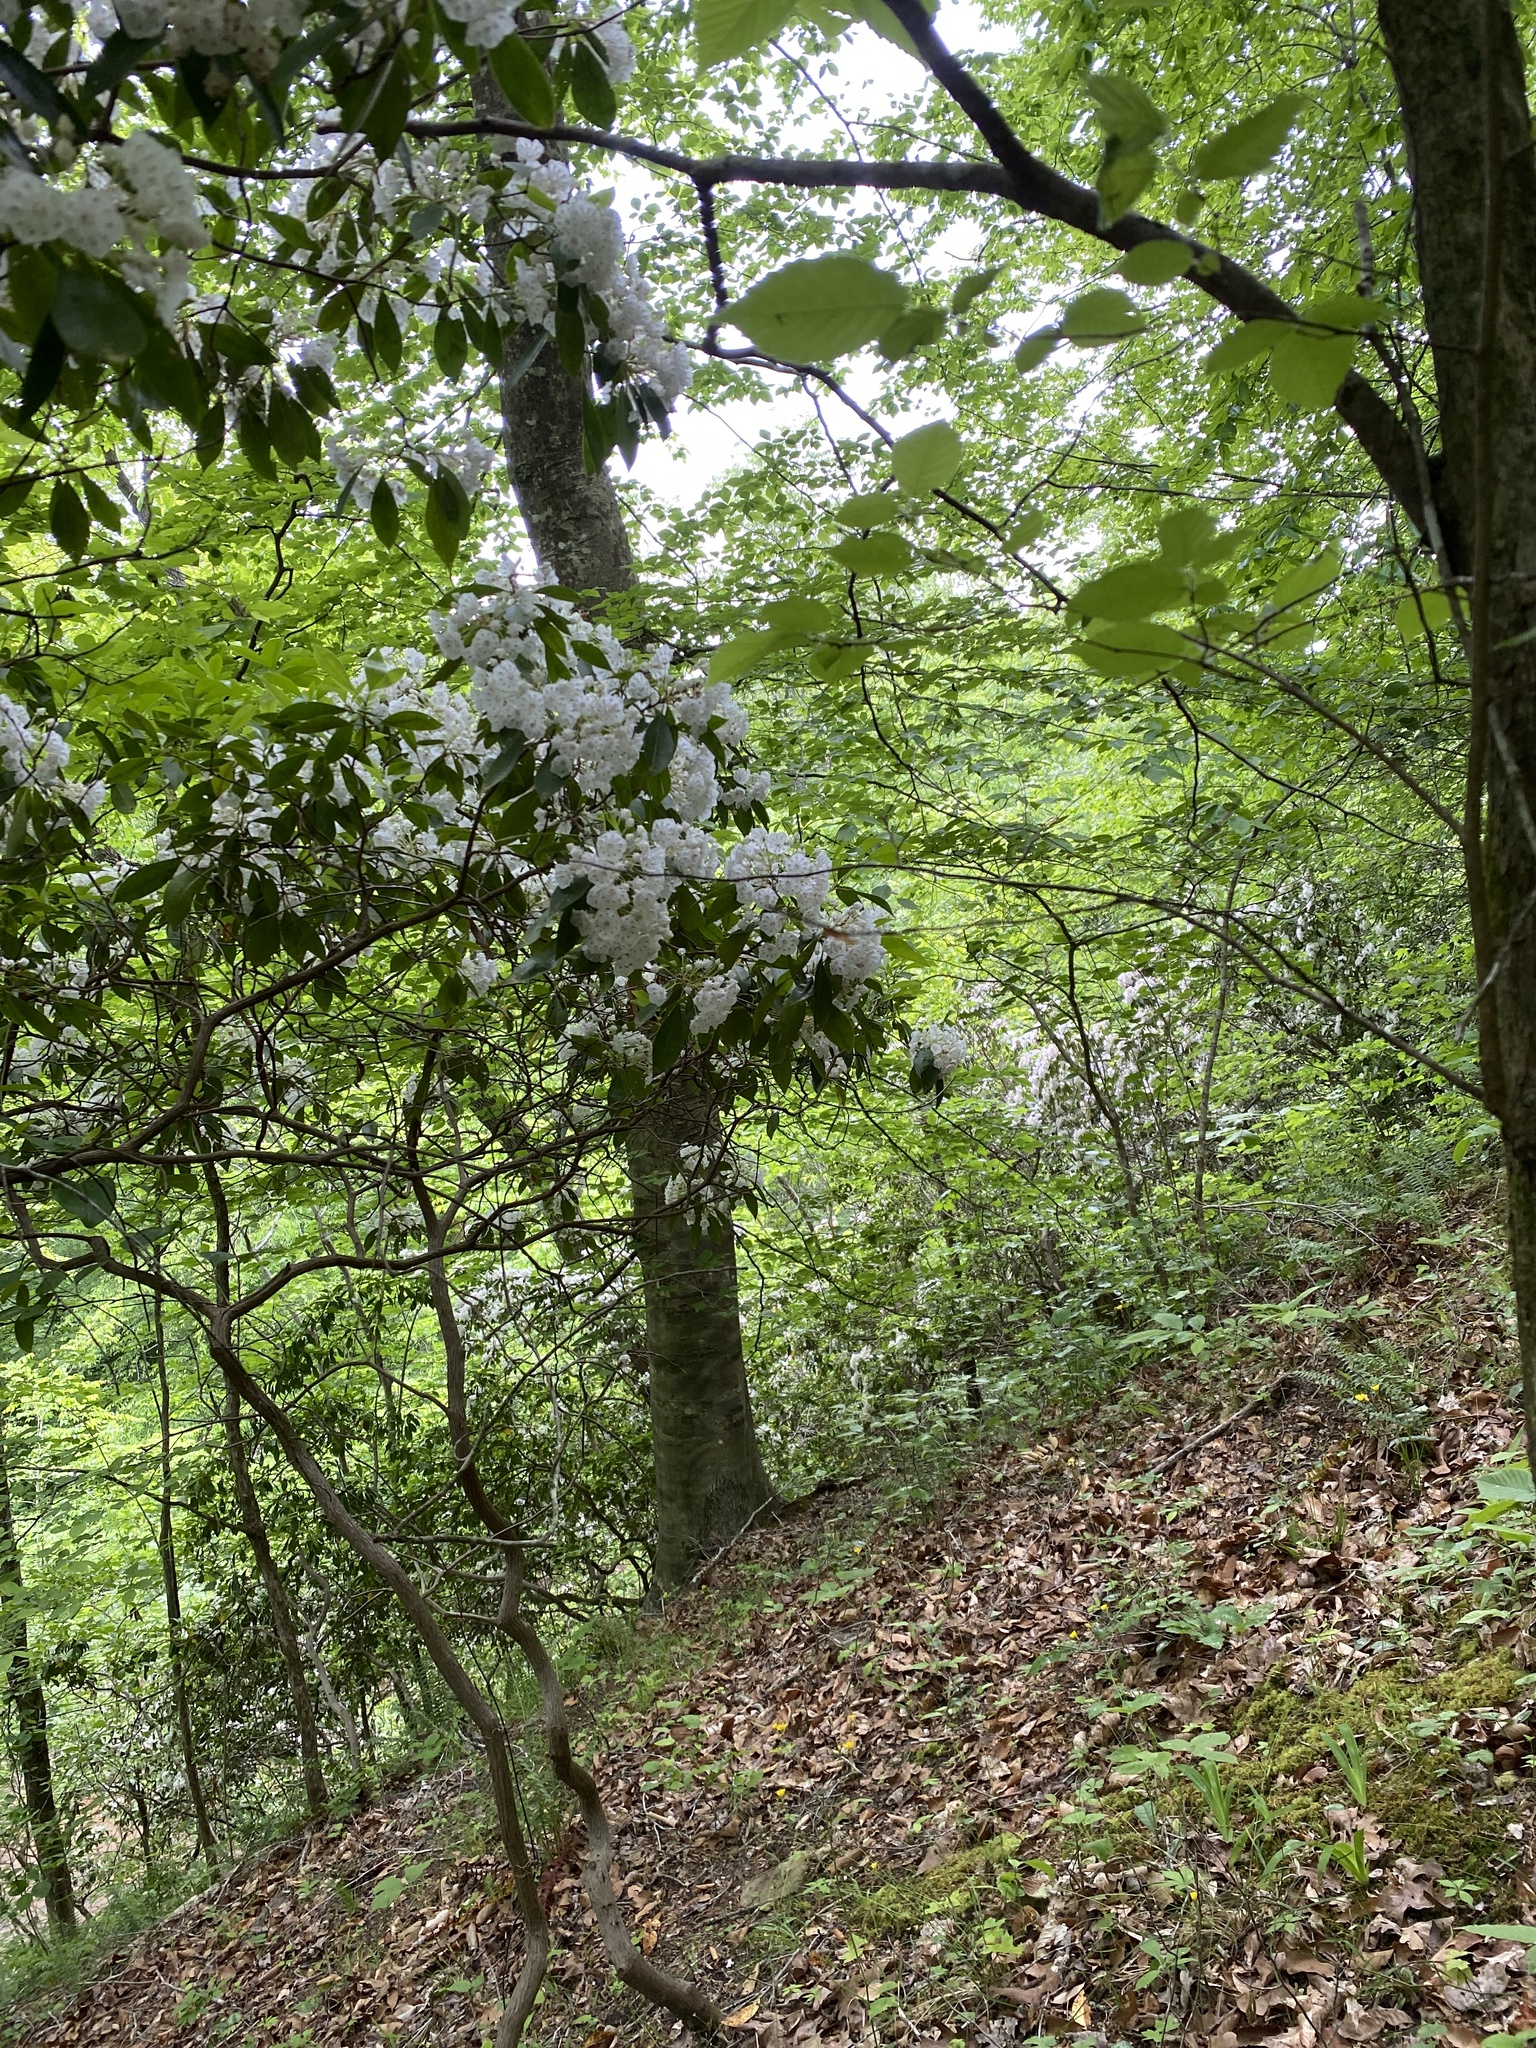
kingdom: Plantae
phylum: Tracheophyta
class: Magnoliopsida
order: Ericales
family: Ericaceae
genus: Kalmia
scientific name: Kalmia latifolia
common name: Mountain-laurel
